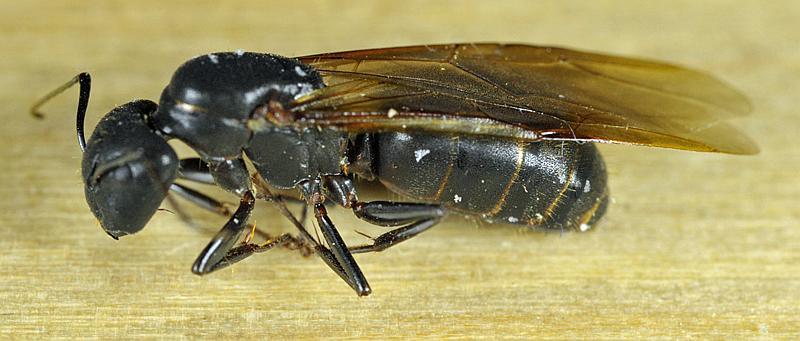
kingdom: Animalia
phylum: Arthropoda
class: Insecta
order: Hymenoptera
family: Formicidae
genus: Camponotus
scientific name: Camponotus pennsylvanicus
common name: Black carpenter ant
